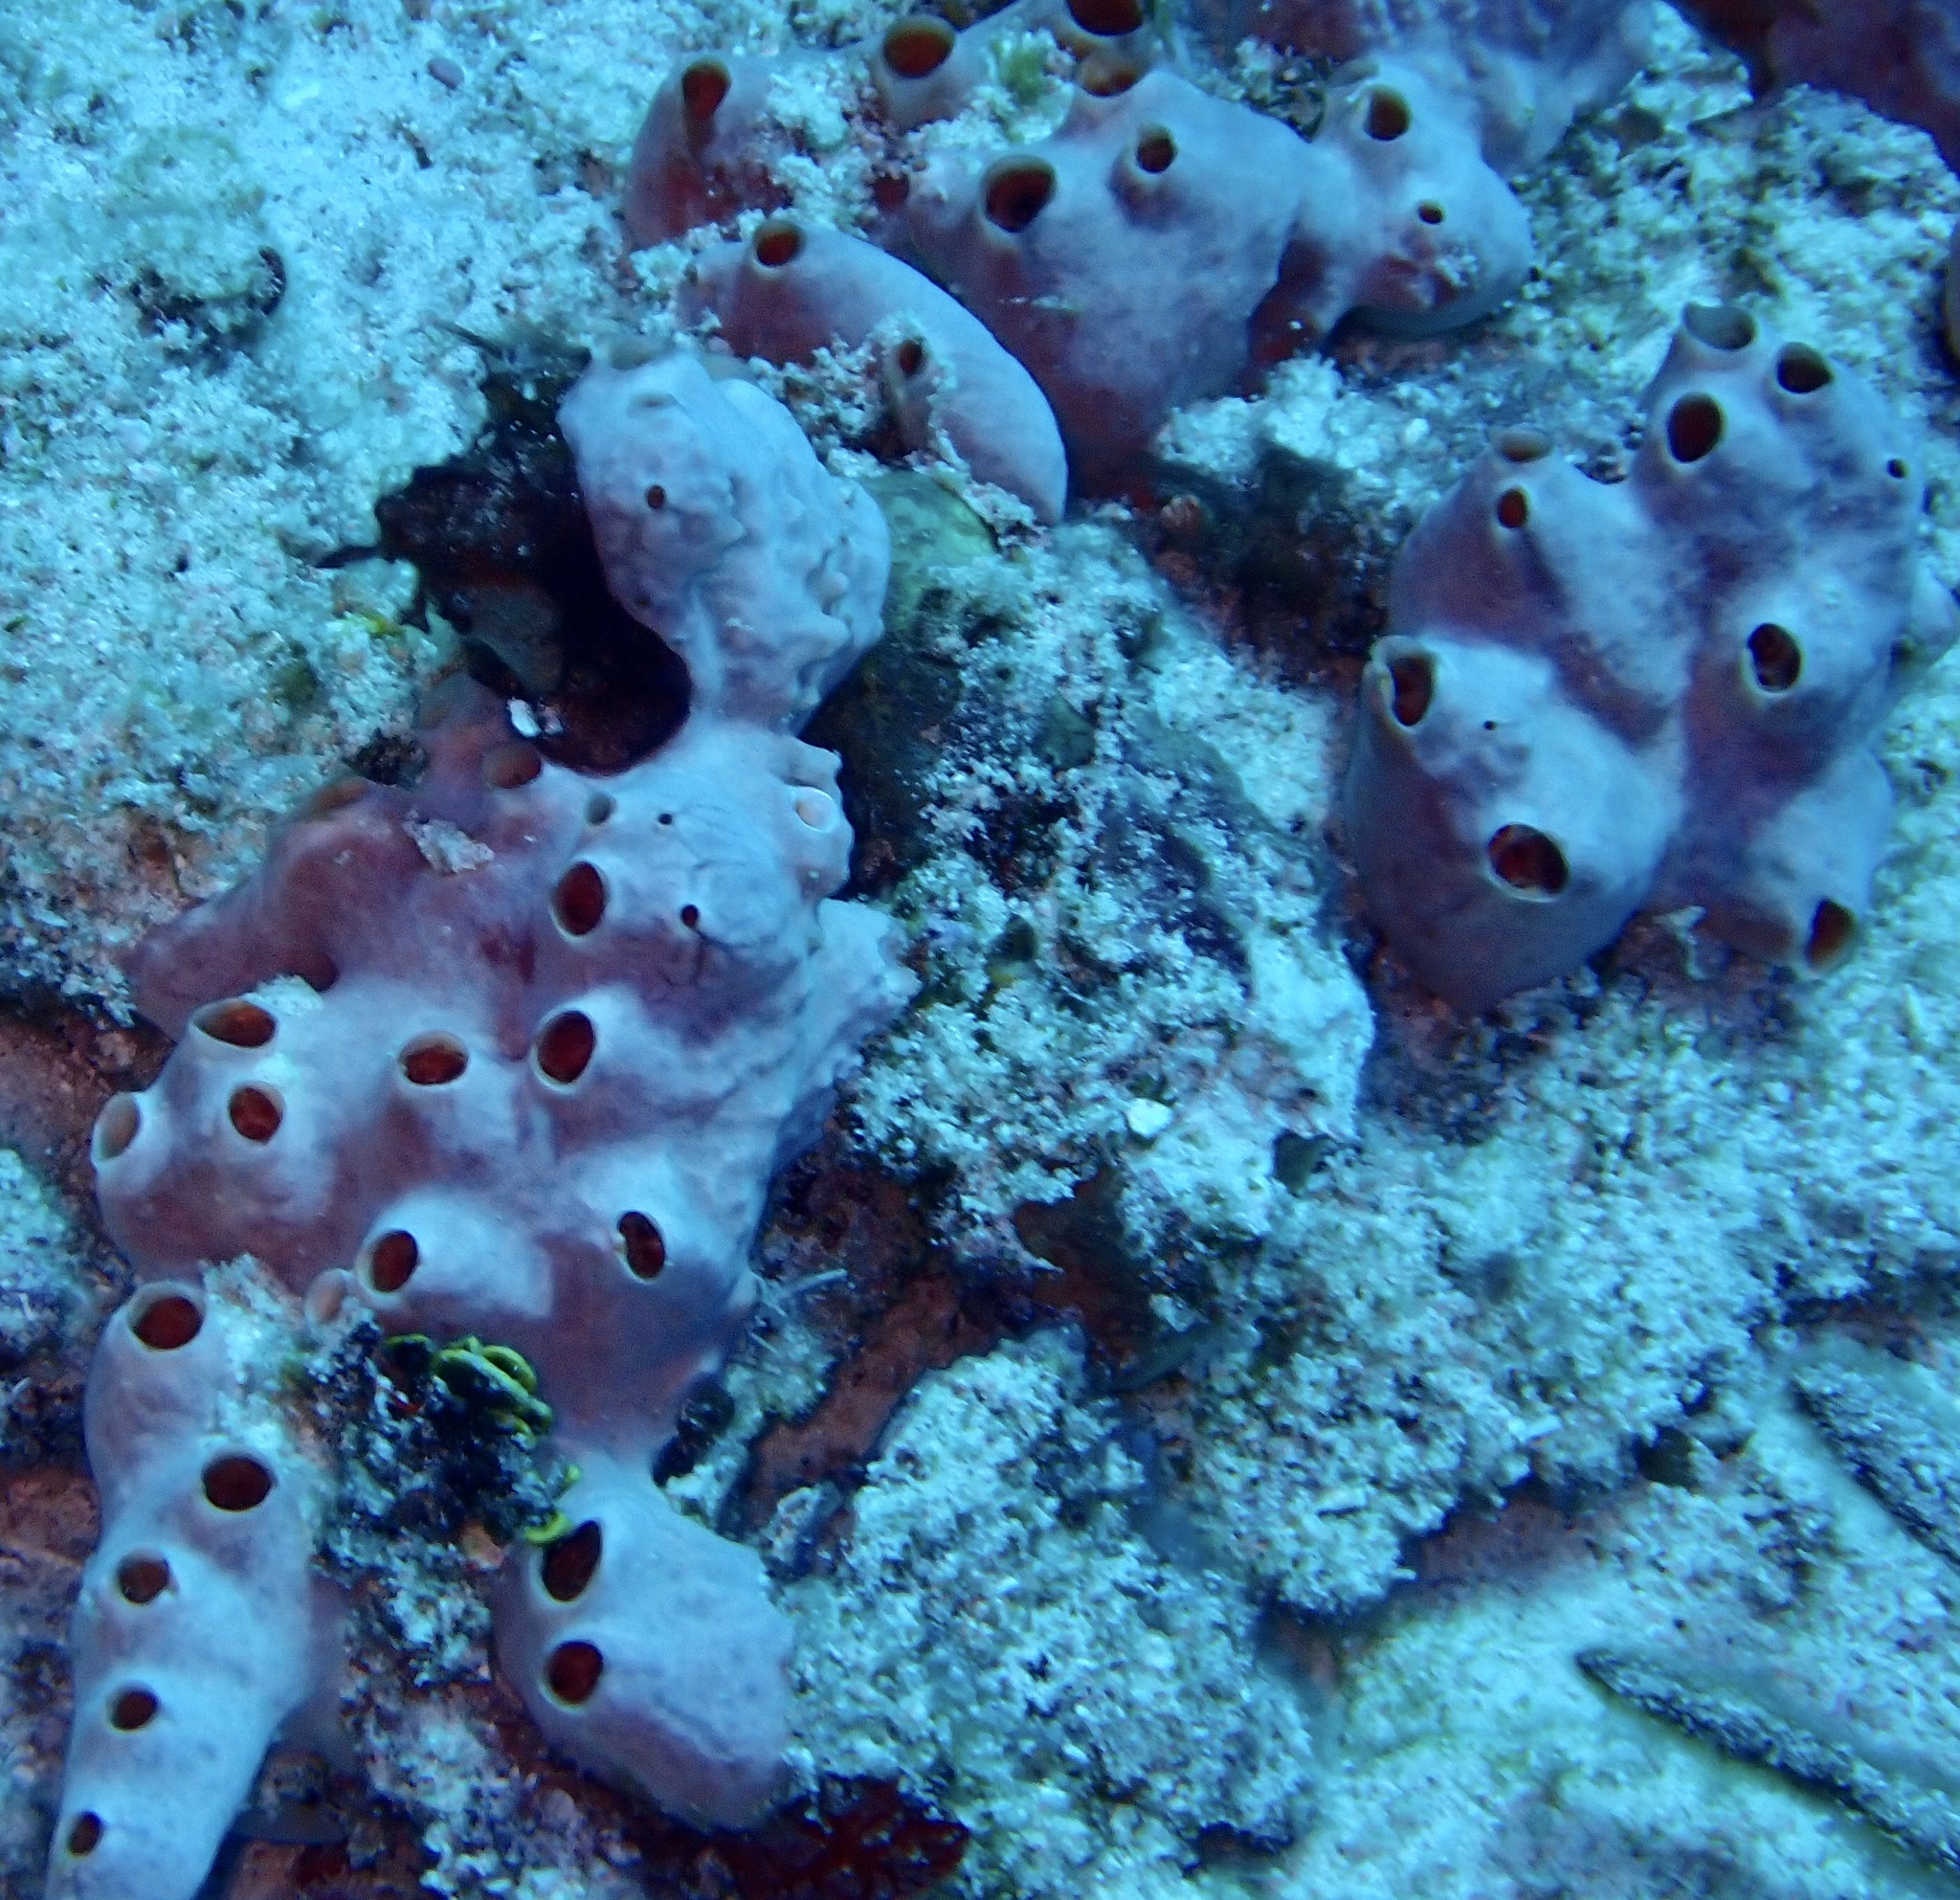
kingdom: Animalia
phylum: Porifera
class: Demospongiae
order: Poecilosclerida
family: Desmacididae
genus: Desmapsamma
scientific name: Desmapsamma anchorata
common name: Lumpy overgrowing sponge
